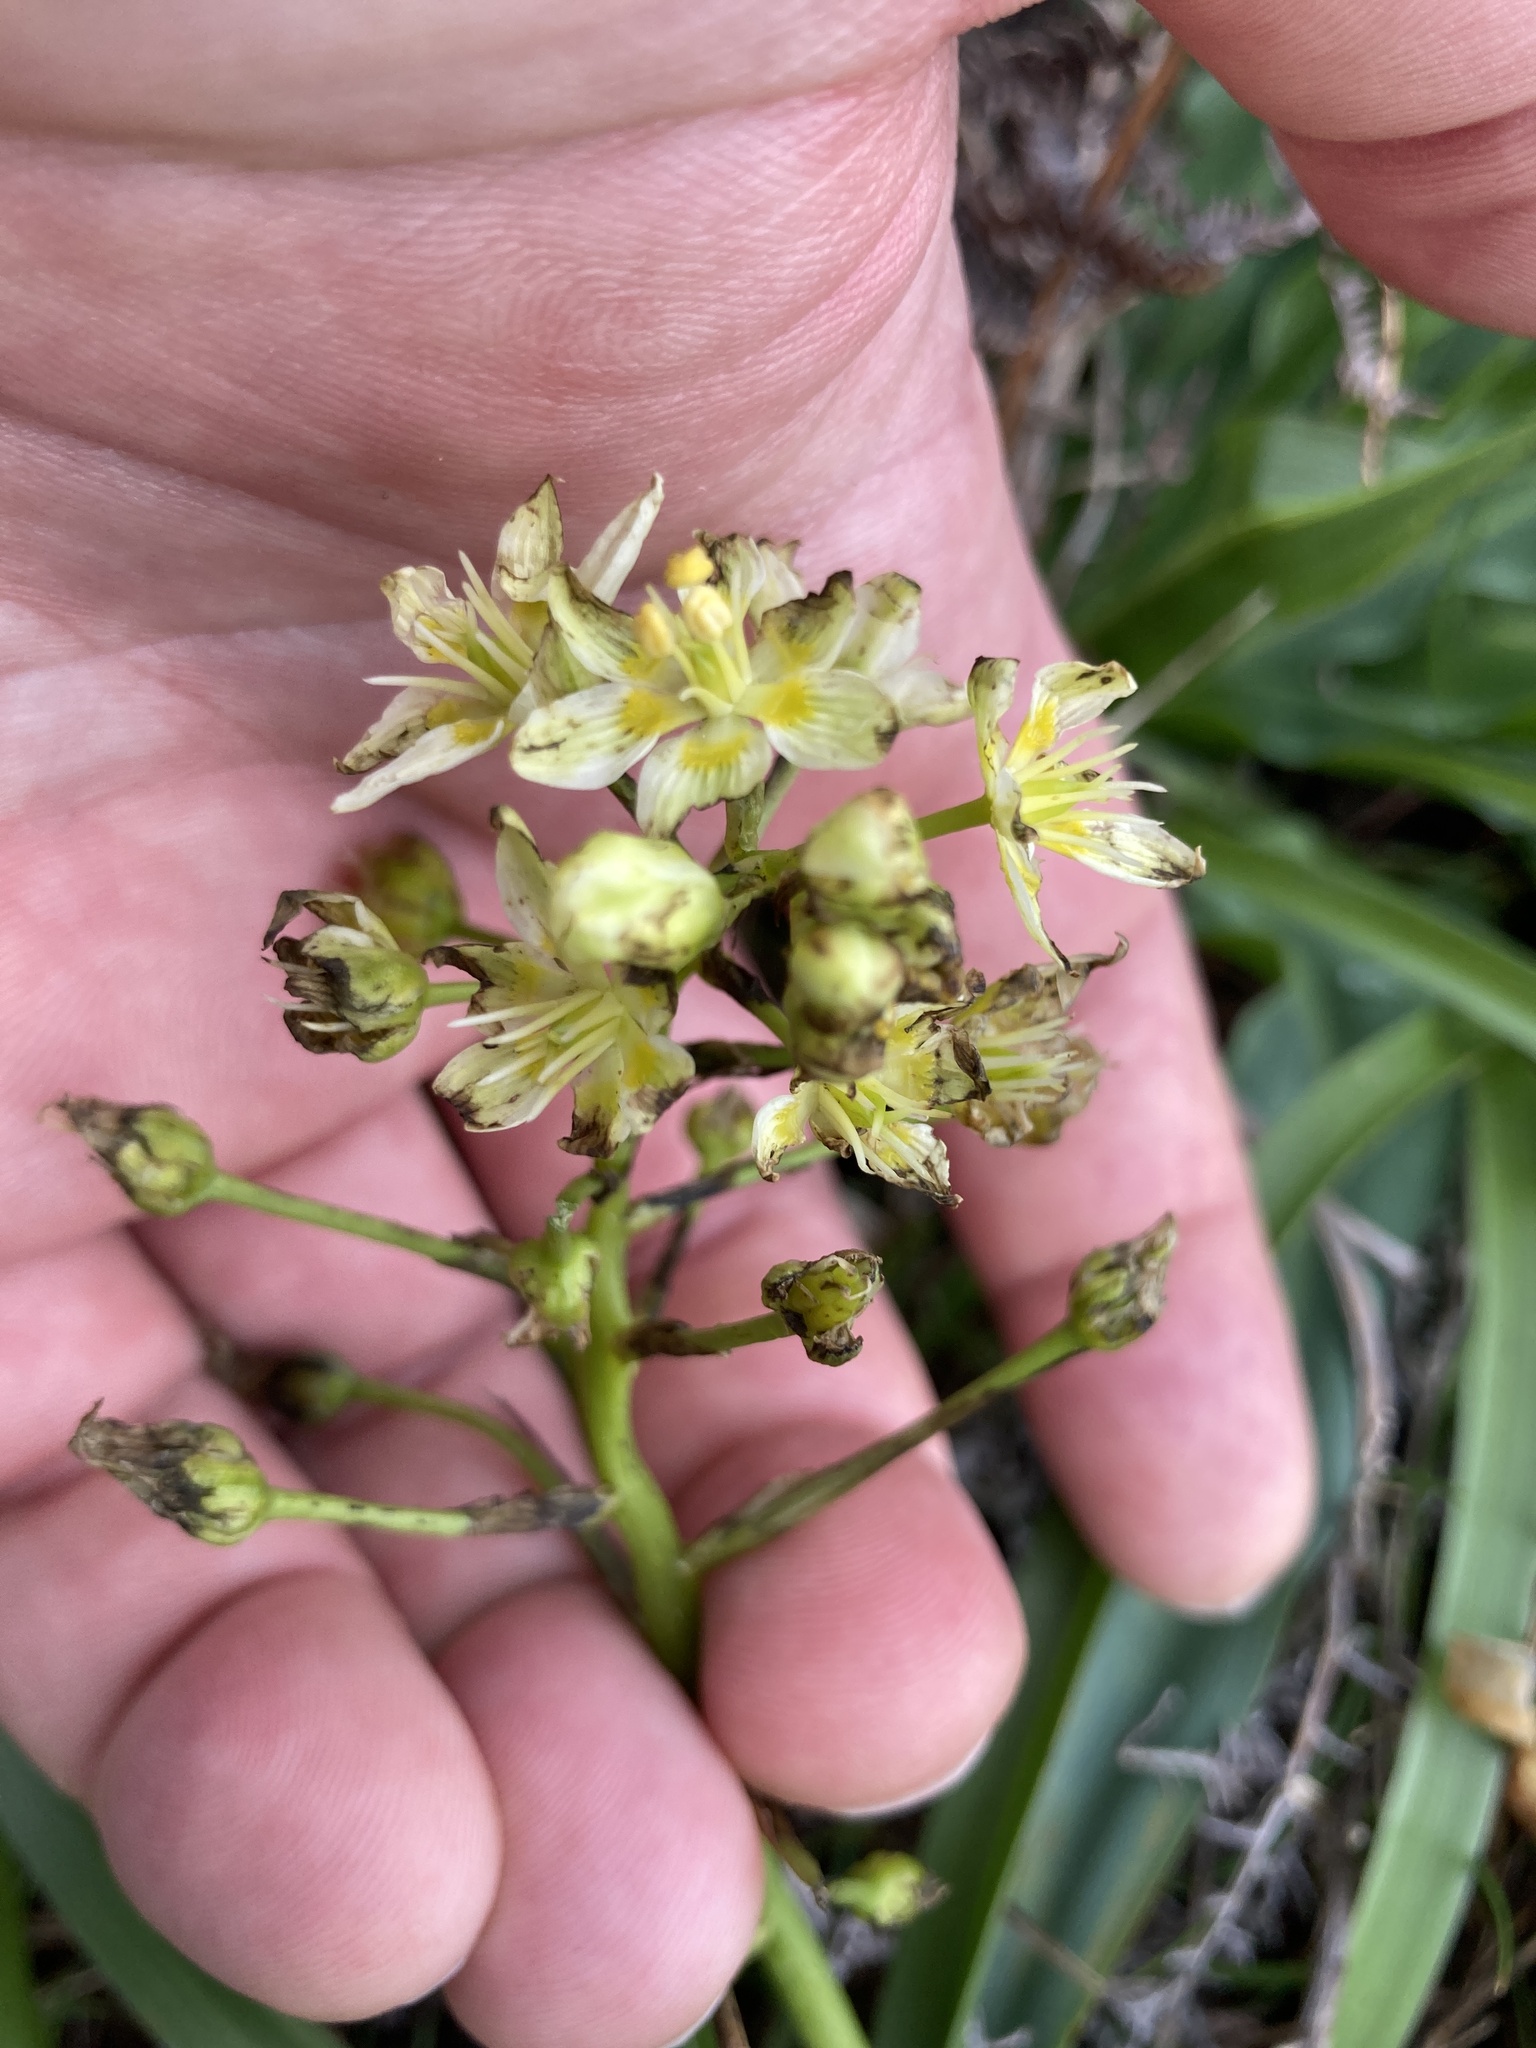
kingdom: Plantae
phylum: Tracheophyta
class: Liliopsida
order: Liliales
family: Melanthiaceae
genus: Toxicoscordion
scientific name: Toxicoscordion fremontii
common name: Fremont's death camas
